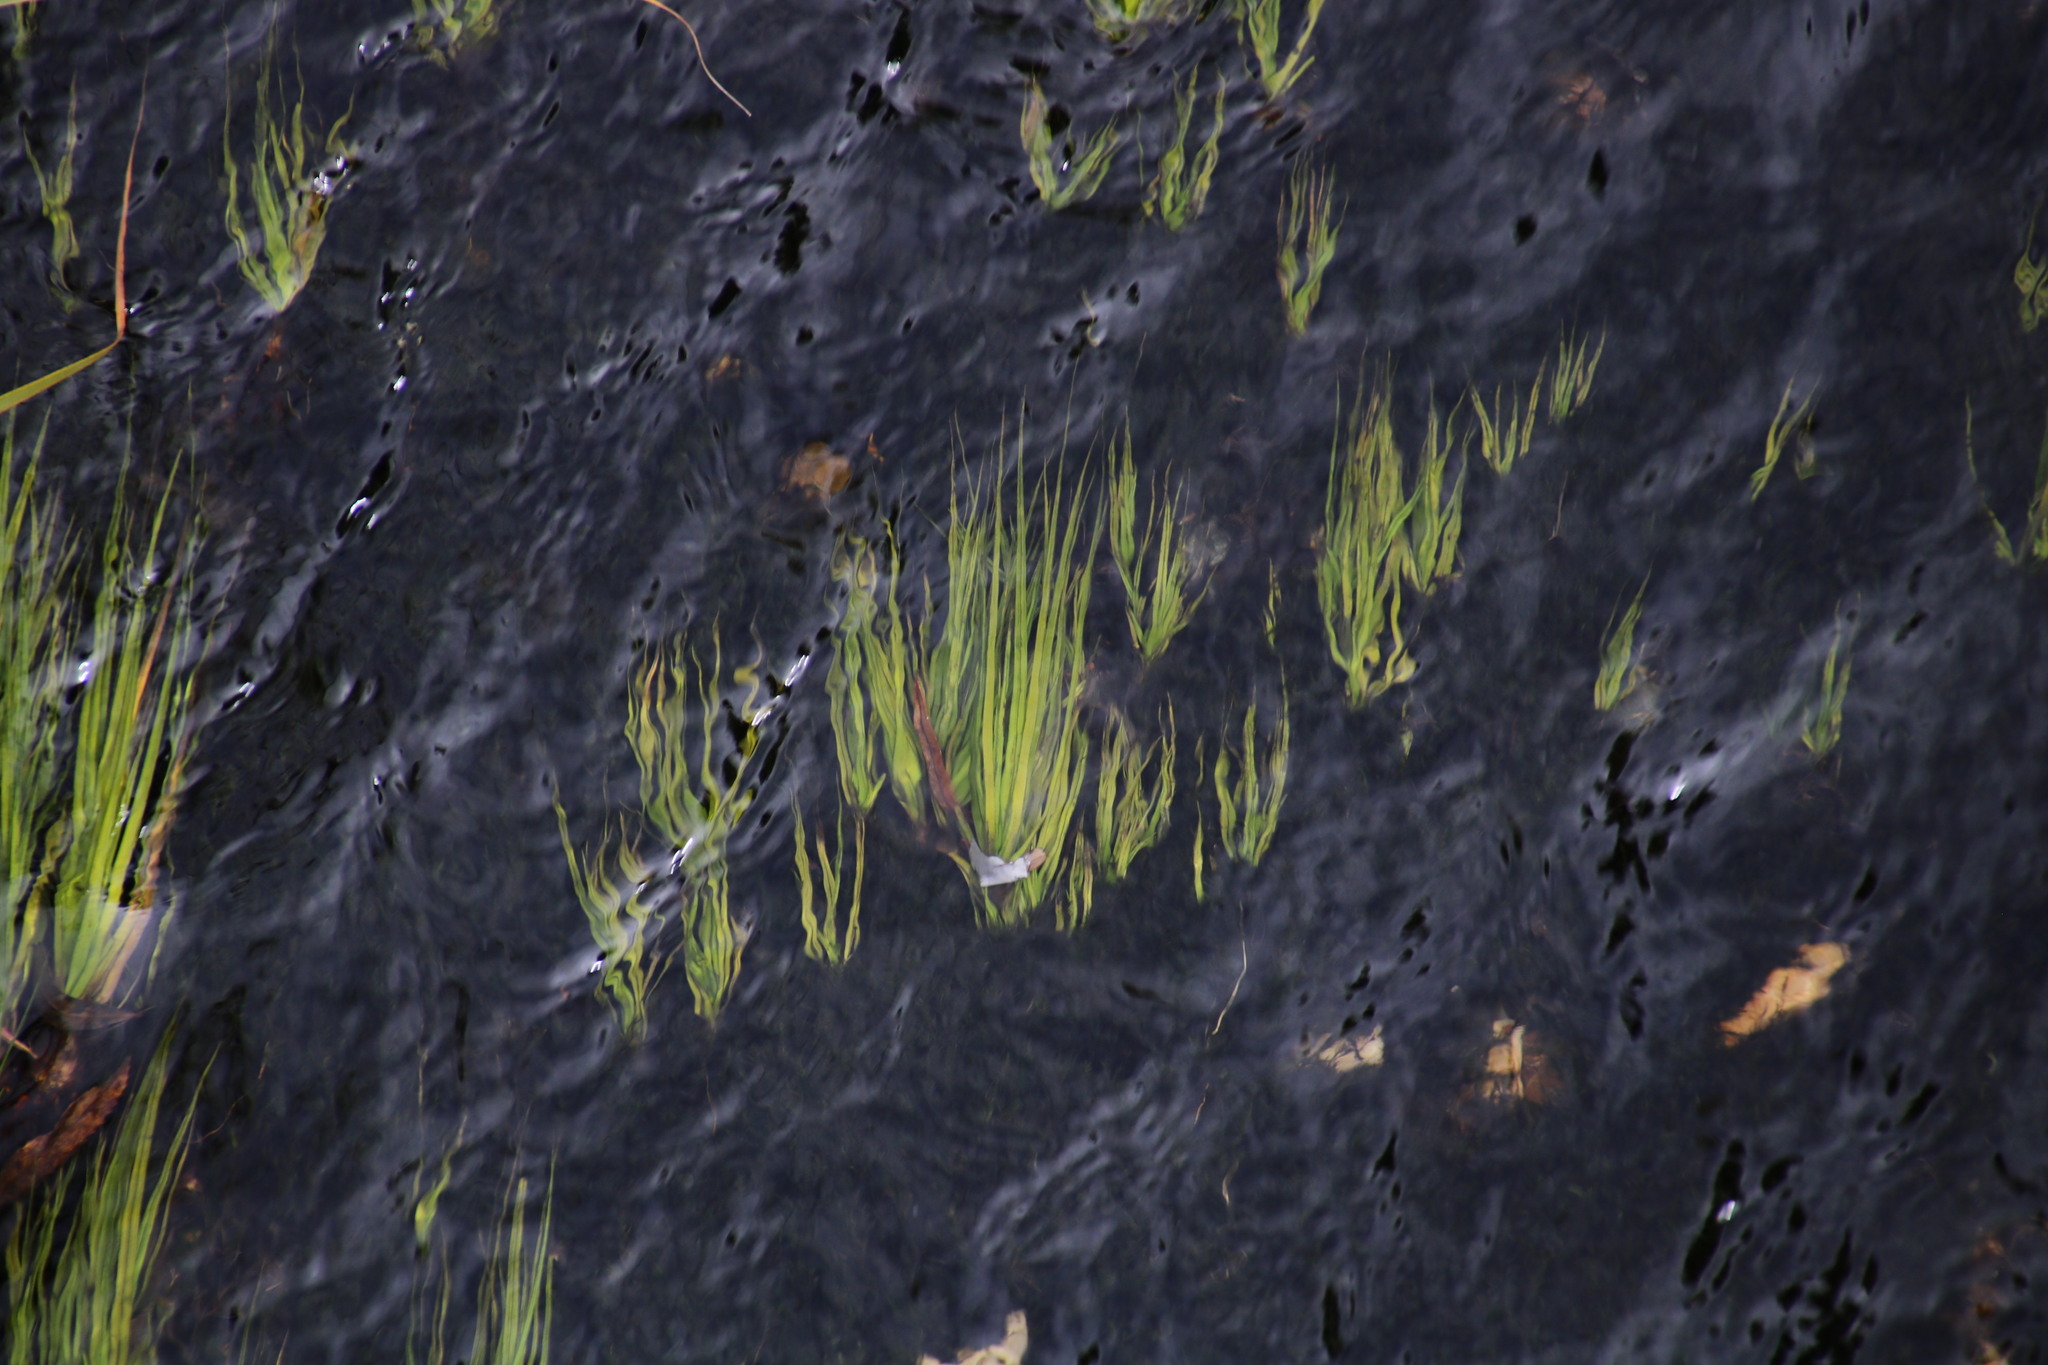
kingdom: Plantae
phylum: Tracheophyta
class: Liliopsida
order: Poales
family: Cyperaceae
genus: Isolepis
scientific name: Isolepis digitata
